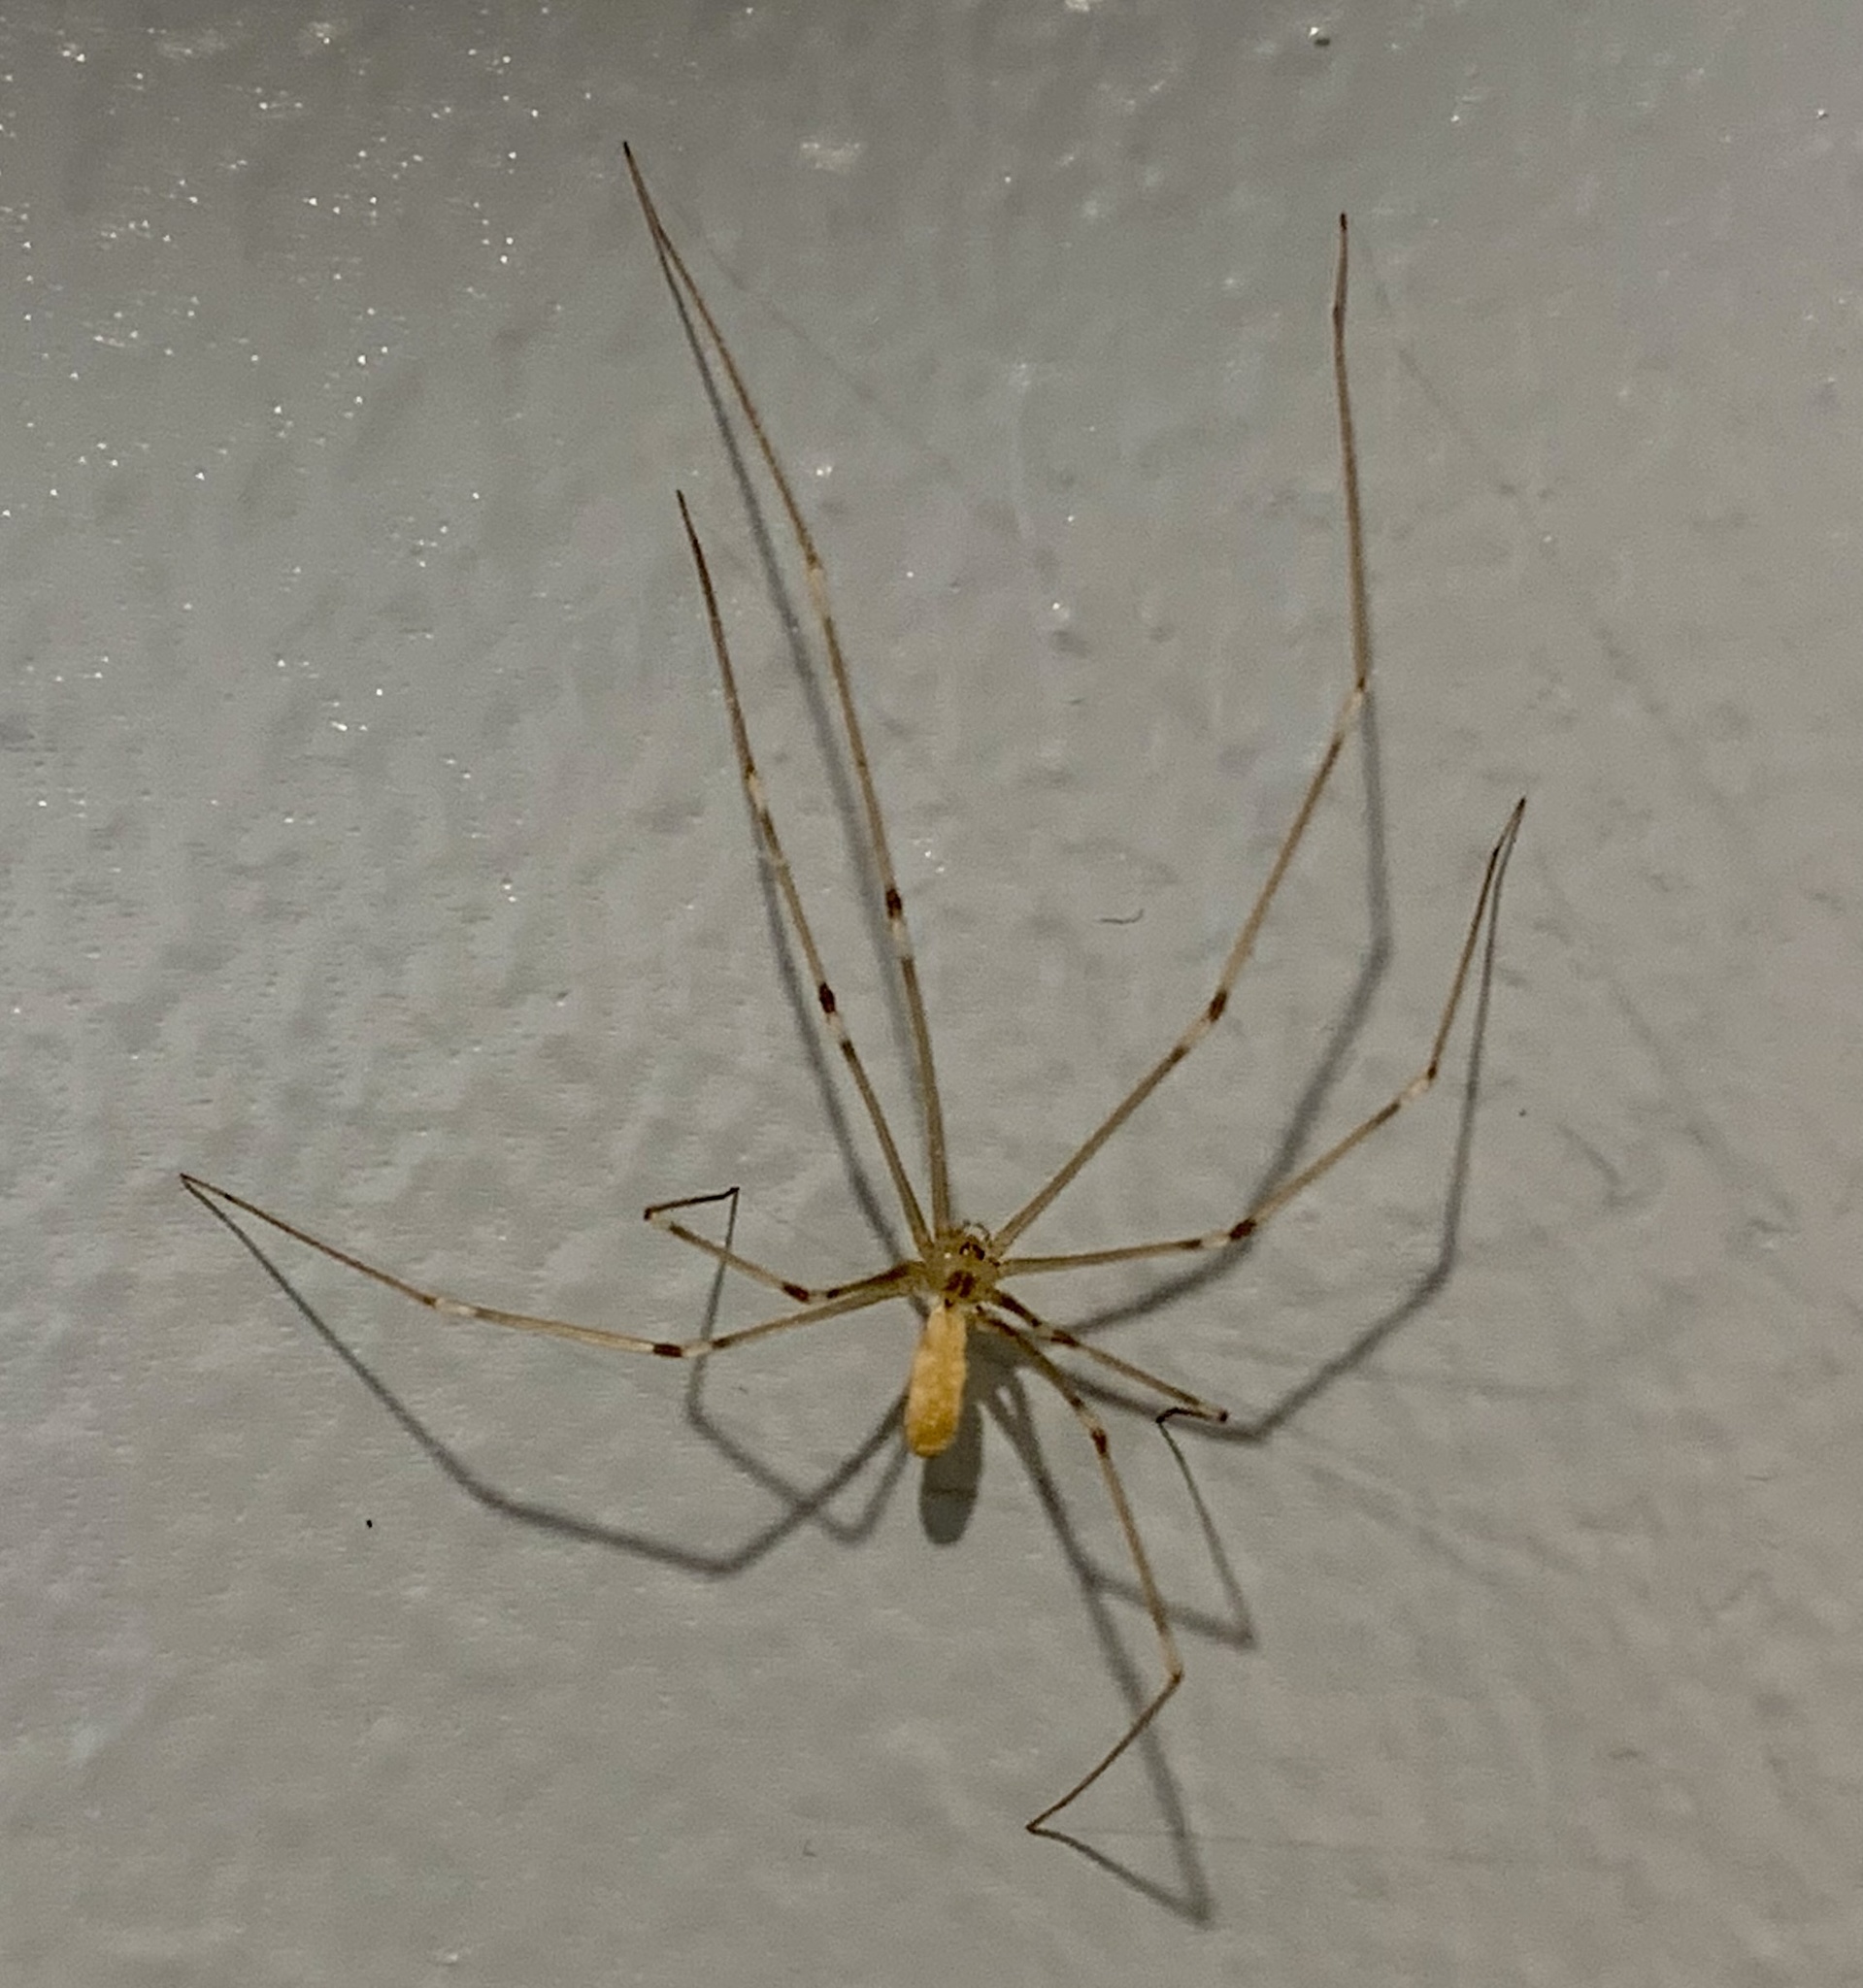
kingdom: Animalia
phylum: Arthropoda
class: Arachnida
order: Araneae
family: Pholcidae
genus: Pholcus
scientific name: Pholcus phalangioides
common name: Longbodied cellar spider
